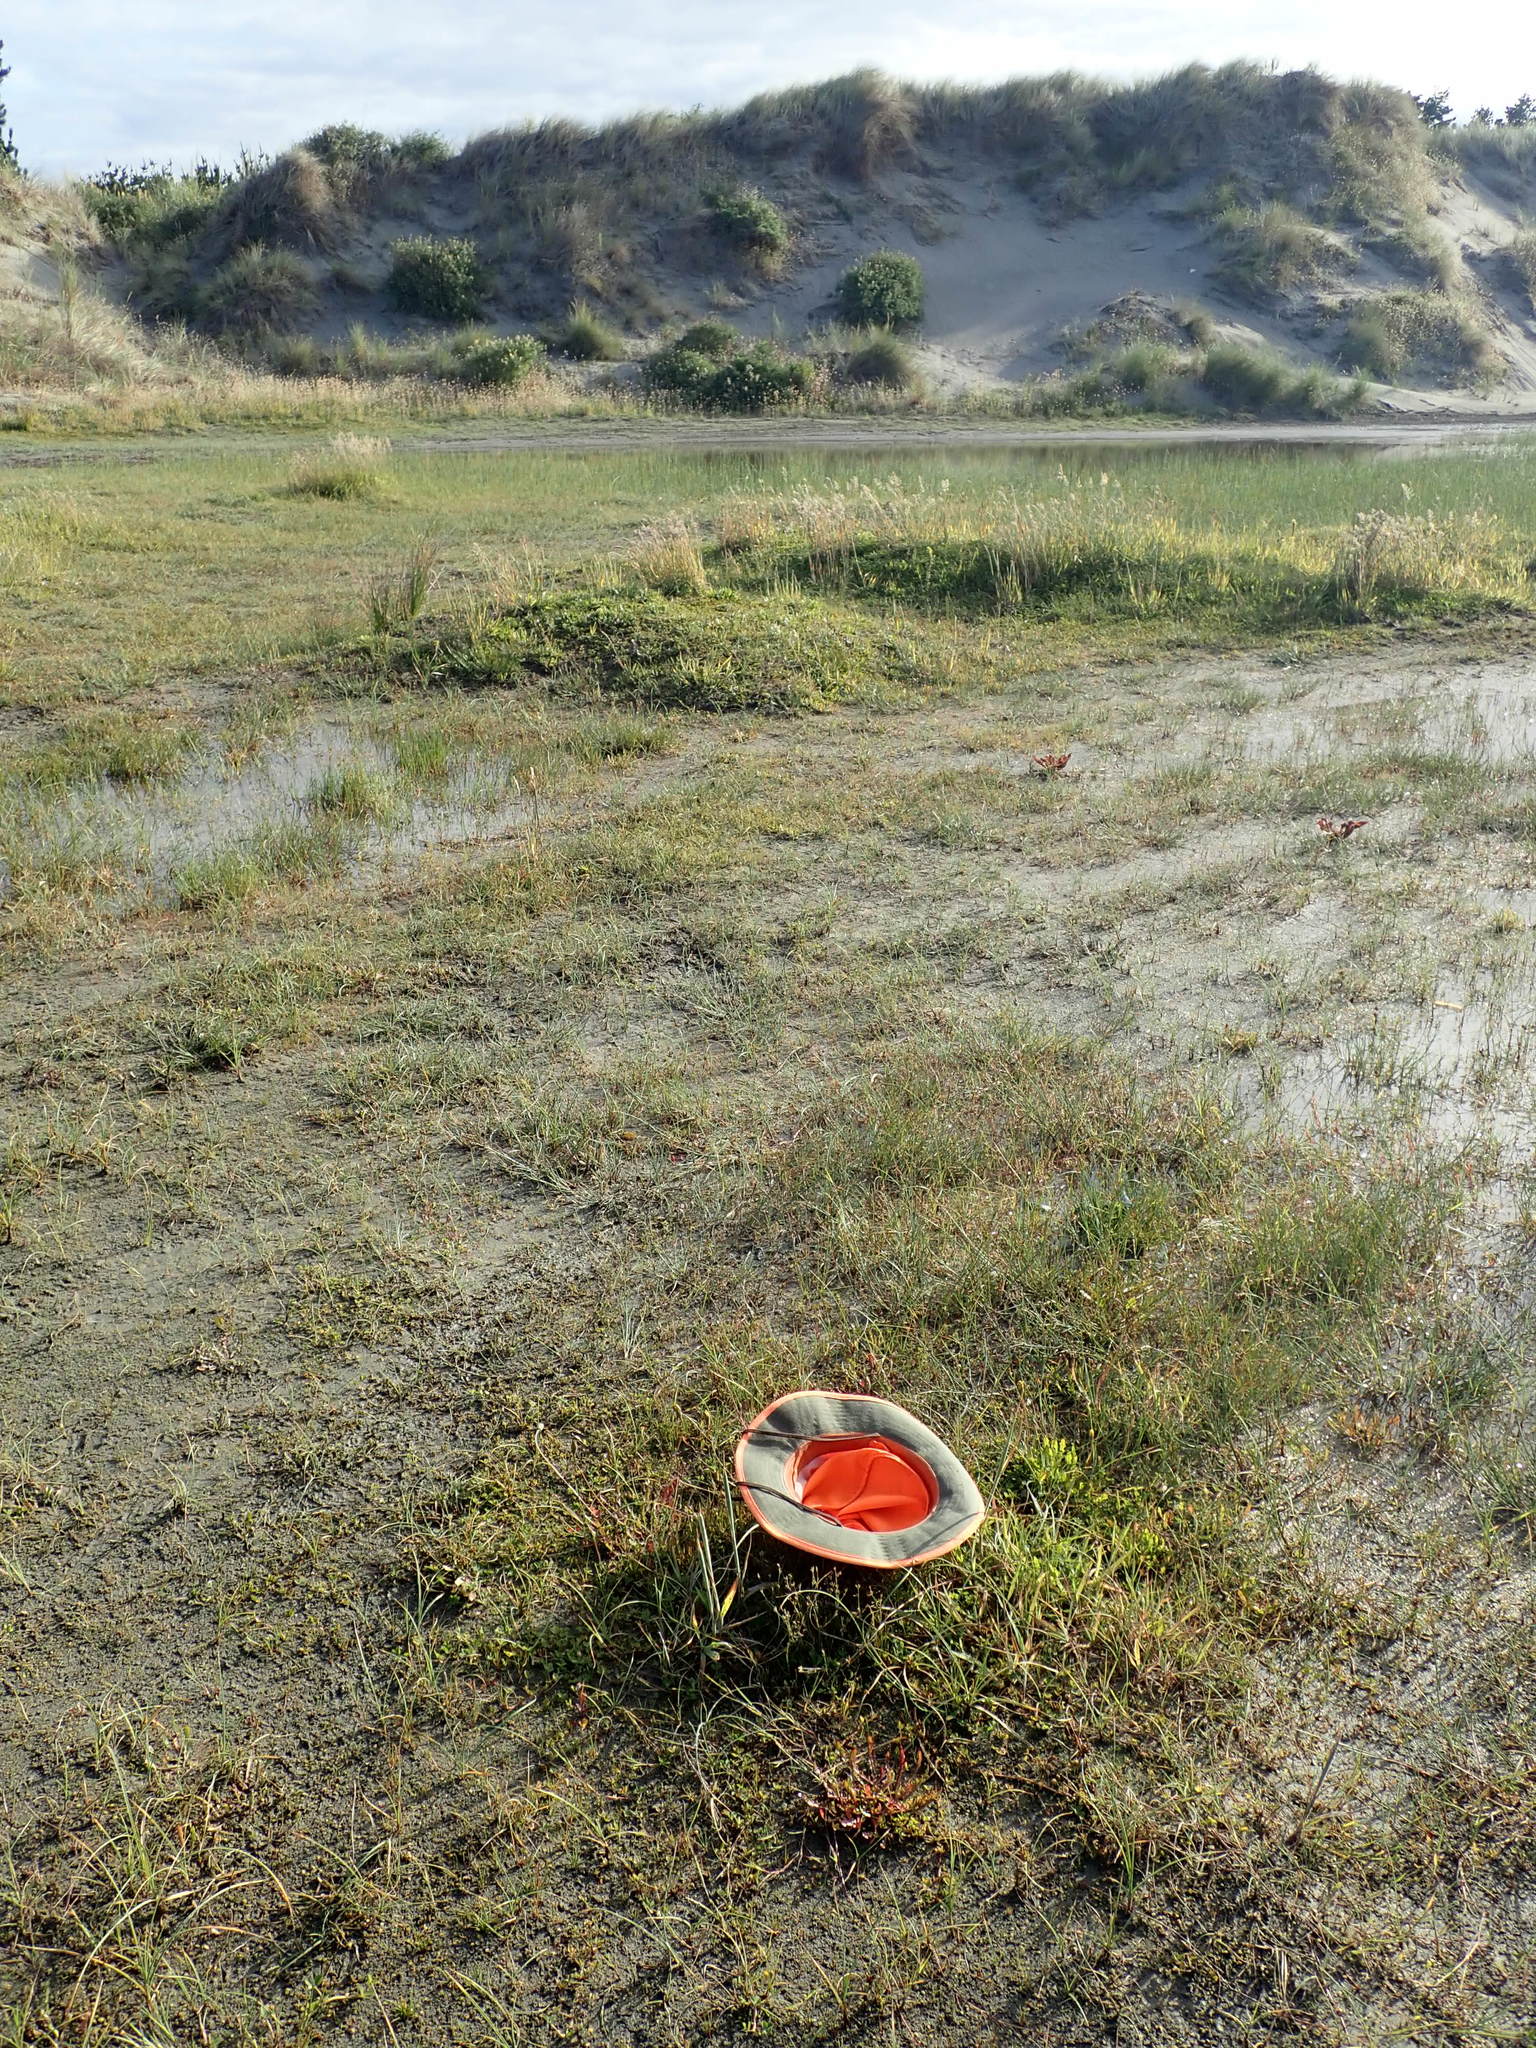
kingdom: Plantae
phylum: Tracheophyta
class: Magnoliopsida
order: Asterales
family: Campanulaceae
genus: Lobelia
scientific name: Lobelia anceps
